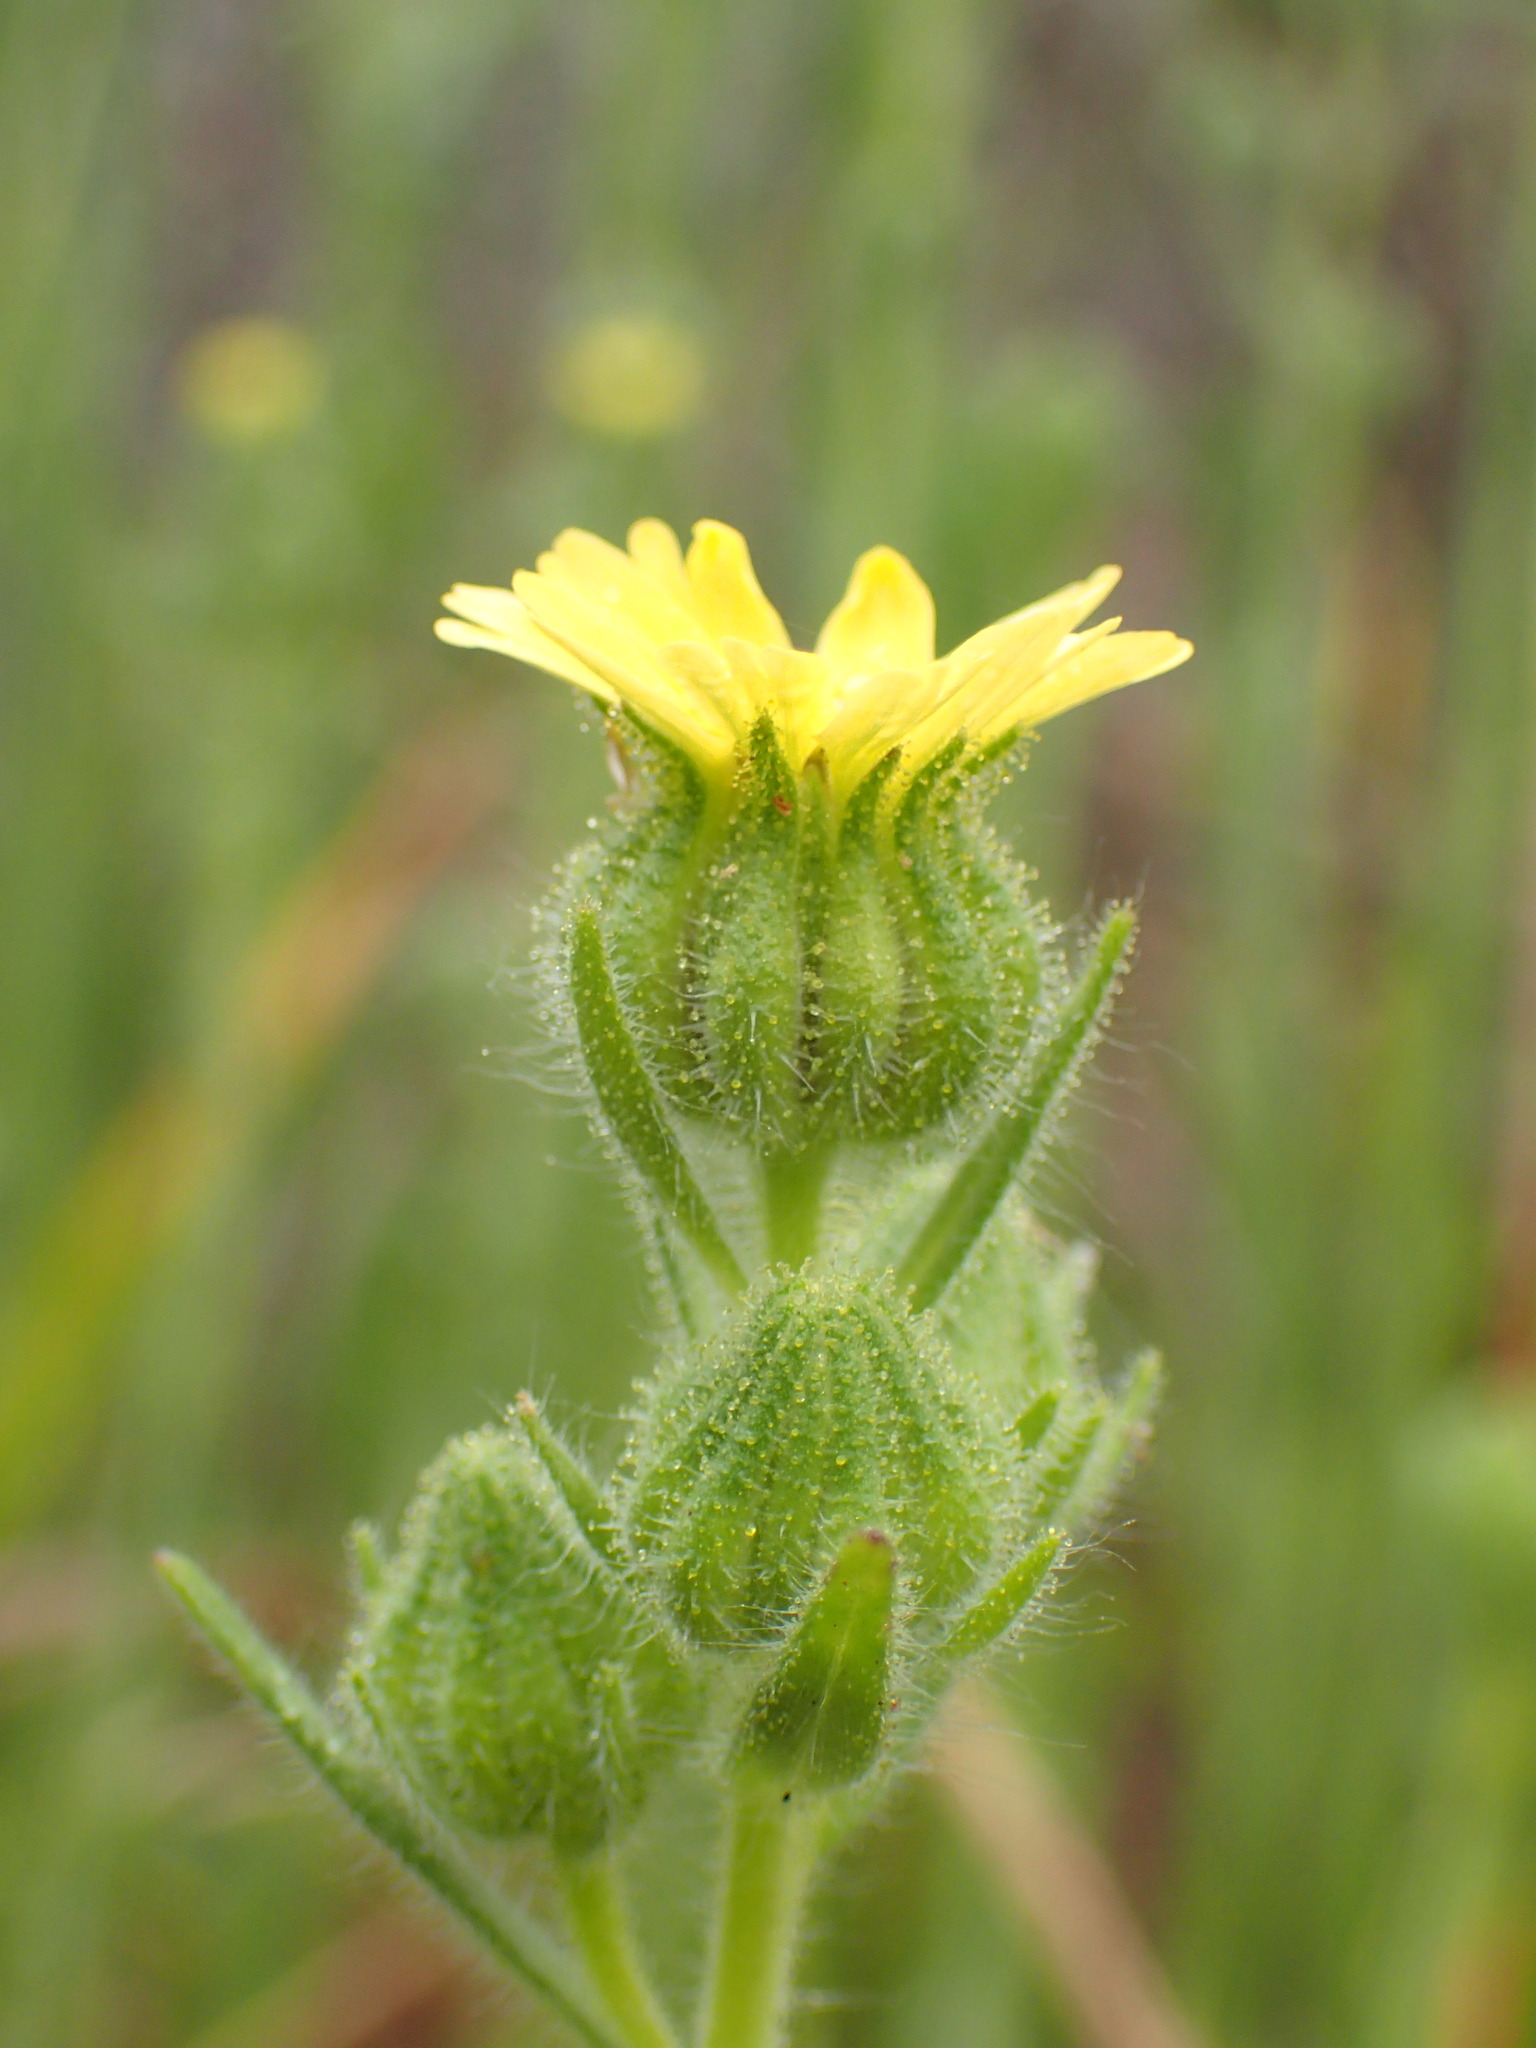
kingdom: Plantae
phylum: Tracheophyta
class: Magnoliopsida
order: Asterales
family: Asteraceae
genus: Madia
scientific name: Madia gracilis
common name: Grassy tarweed
